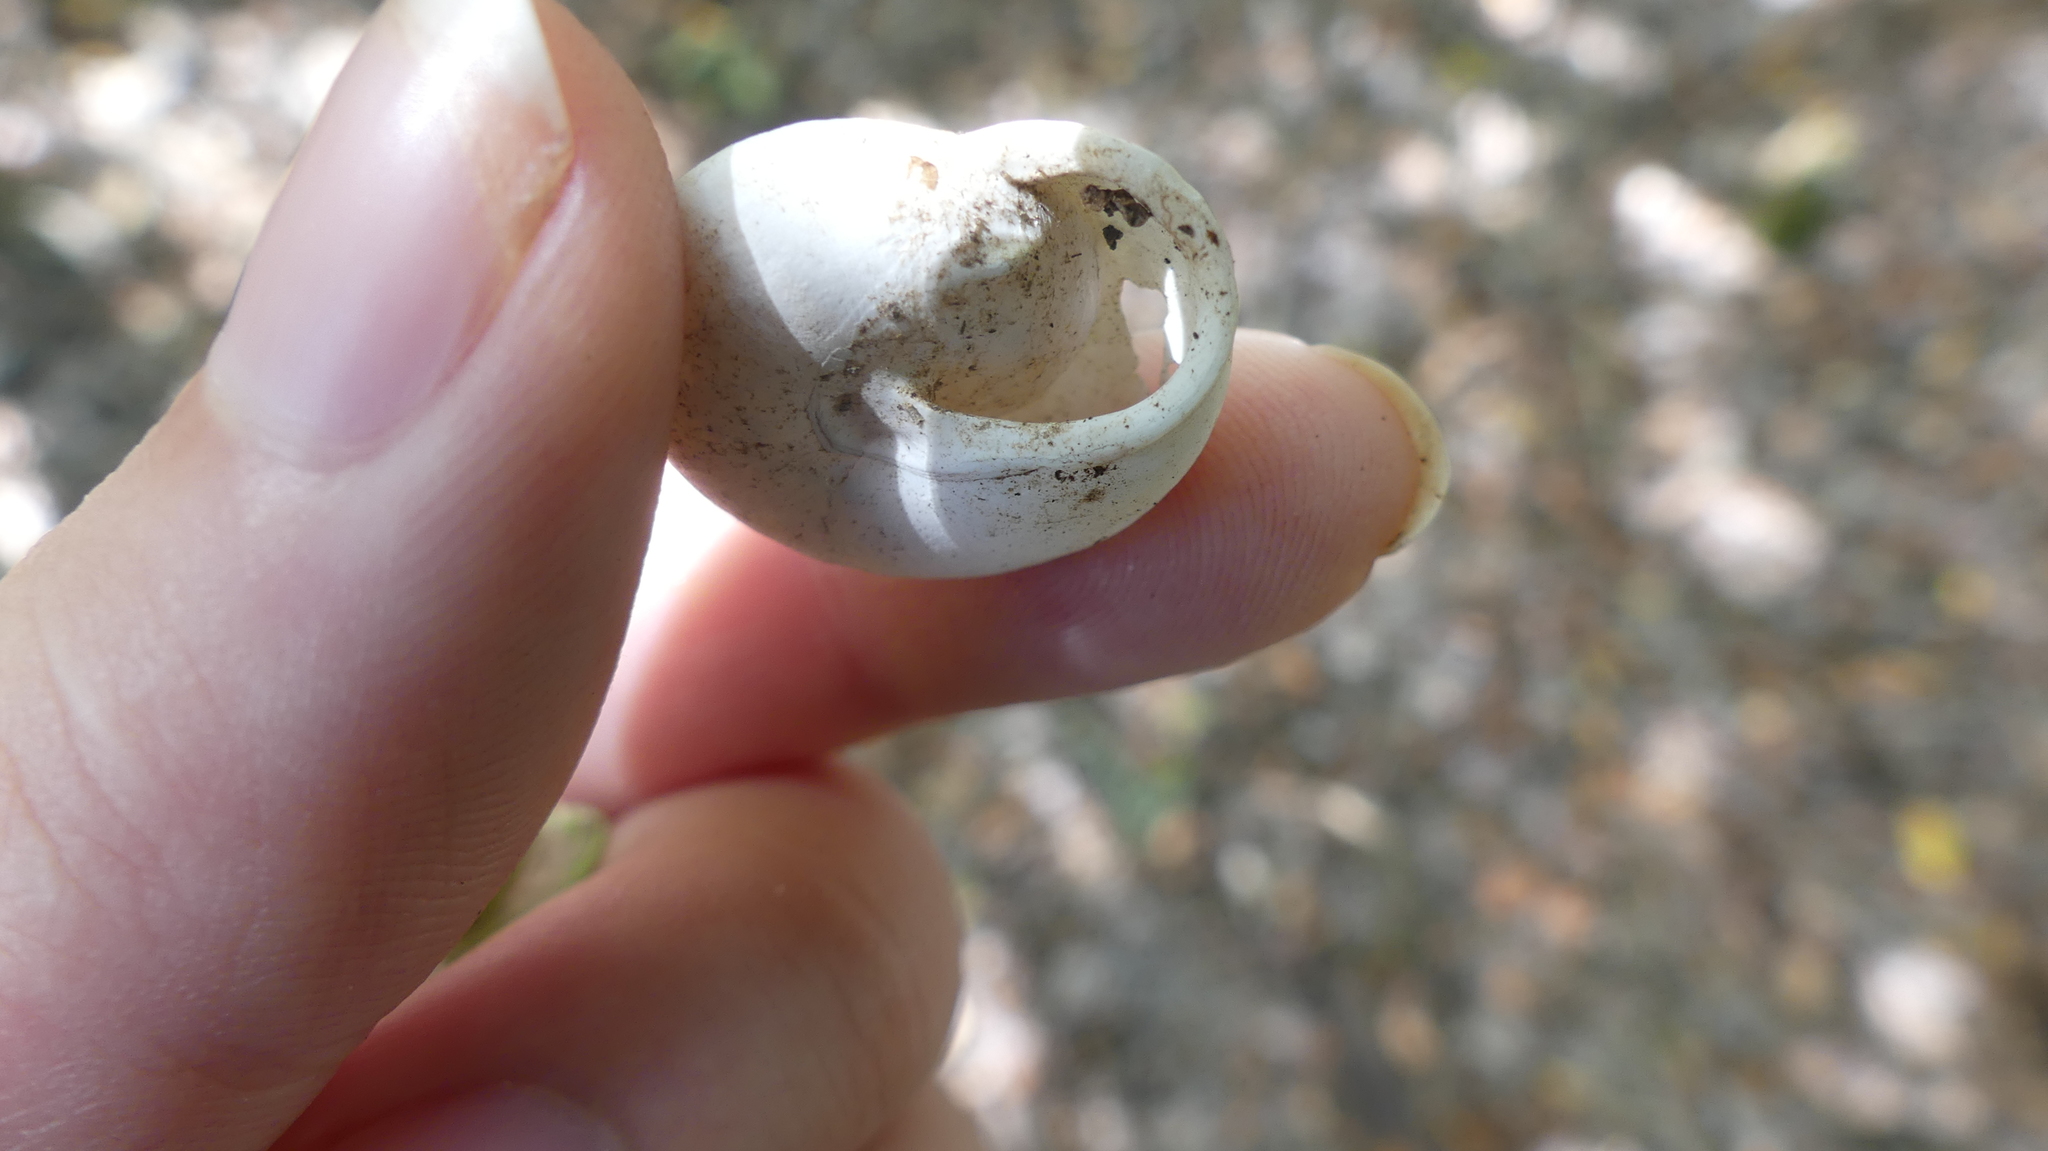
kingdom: Animalia
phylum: Mollusca
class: Gastropoda
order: Stylommatophora
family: Polygyridae
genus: Patera
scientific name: Patera roemeri
